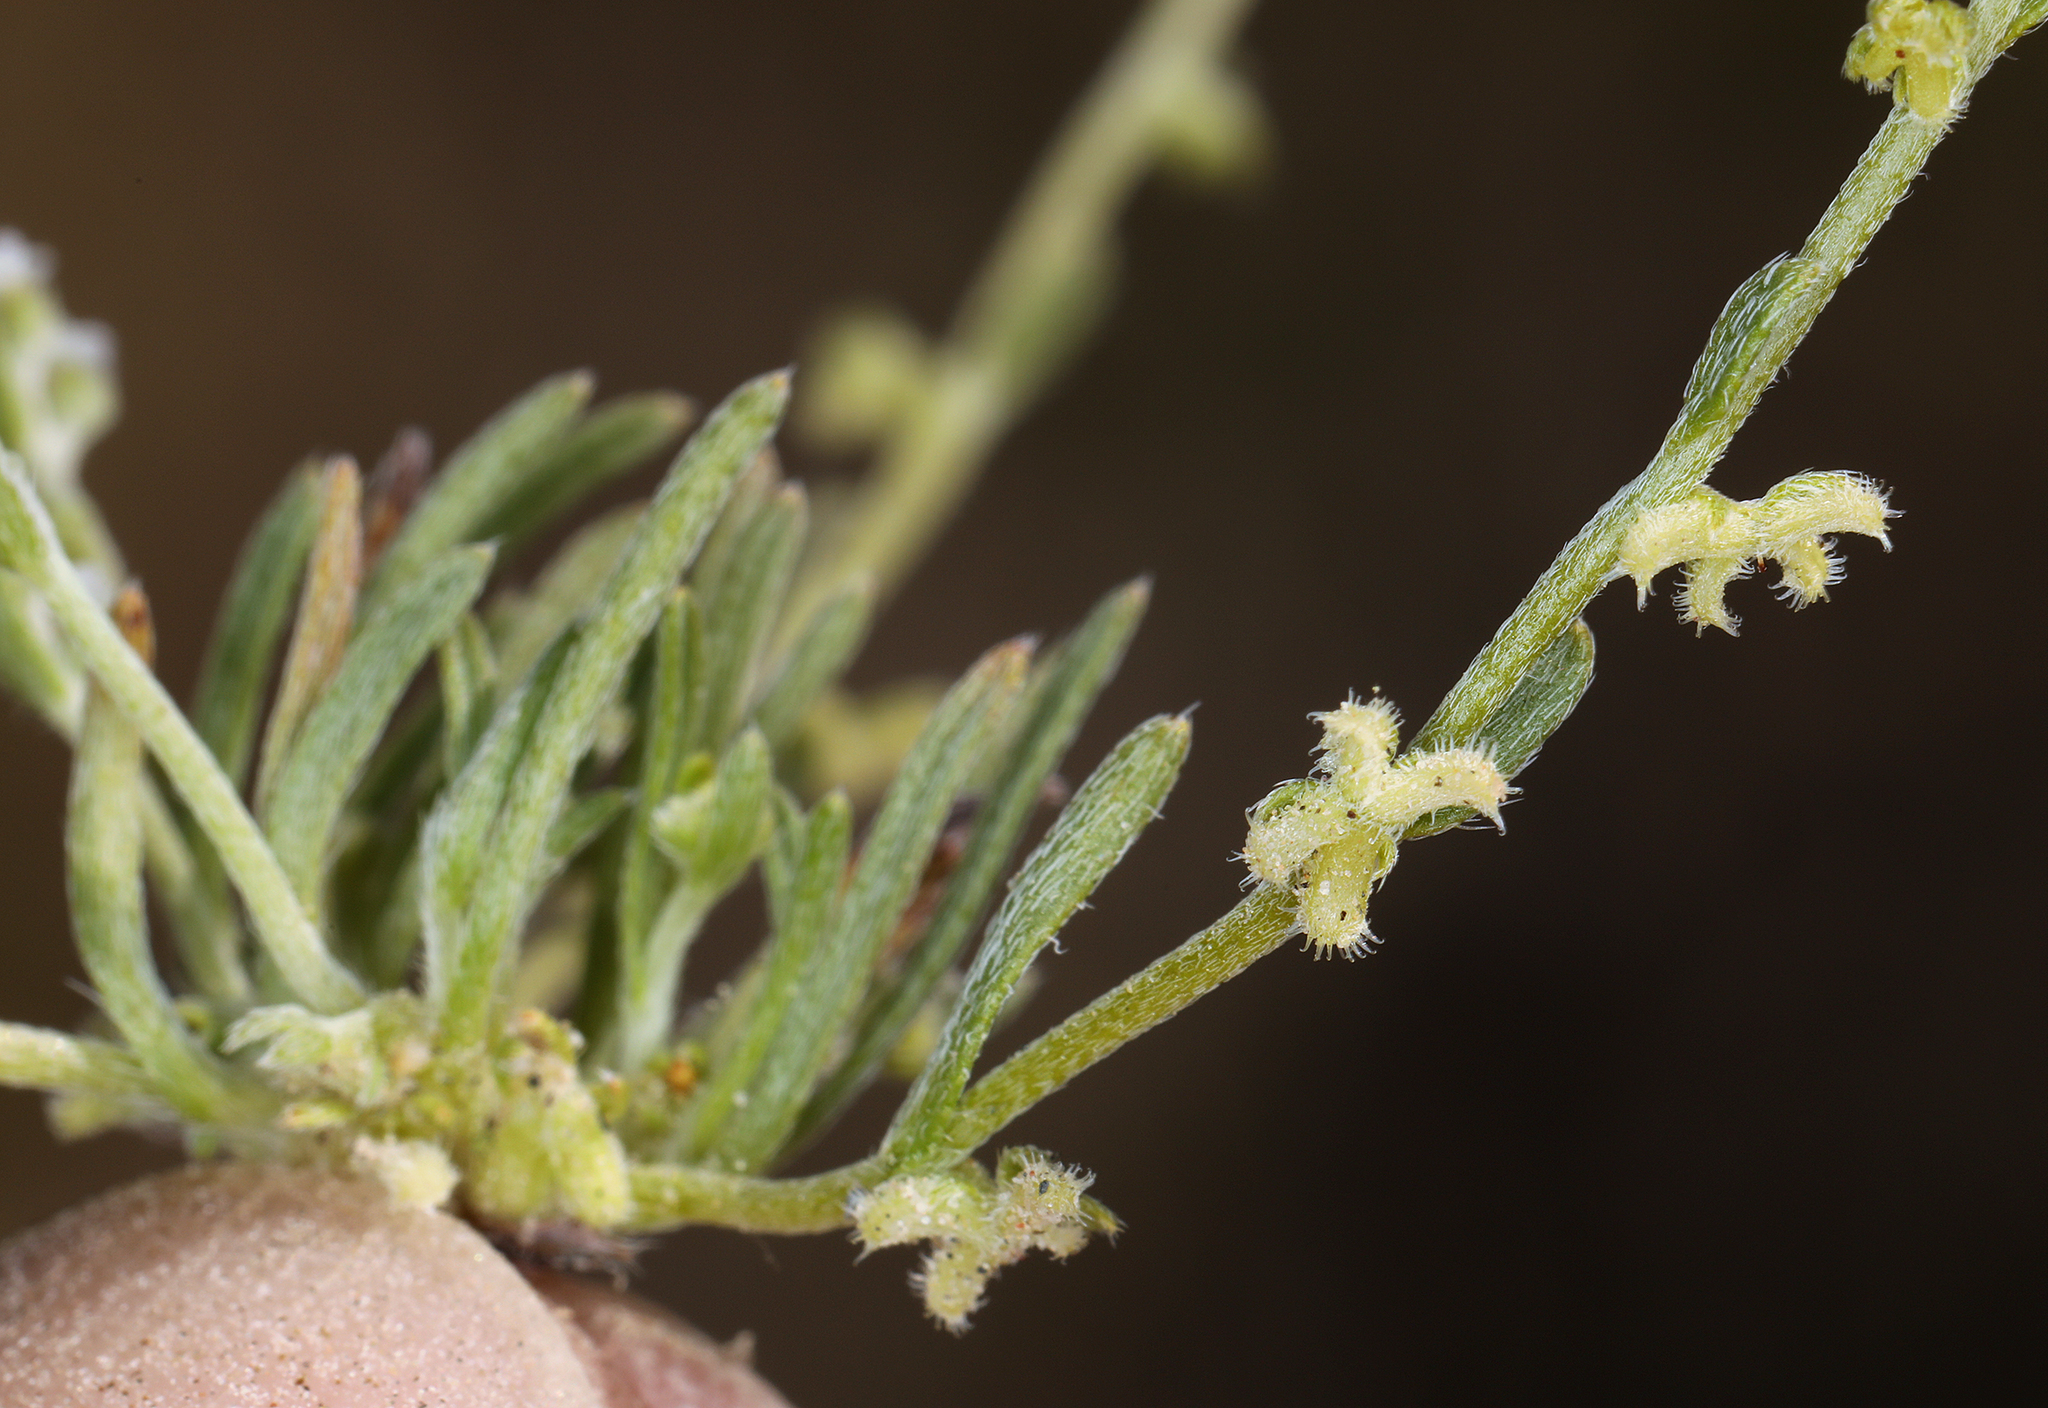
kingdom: Plantae
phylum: Tracheophyta
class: Magnoliopsida
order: Boraginales
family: Boraginaceae
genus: Pectocarya
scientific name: Pectocarya heterocarpa
